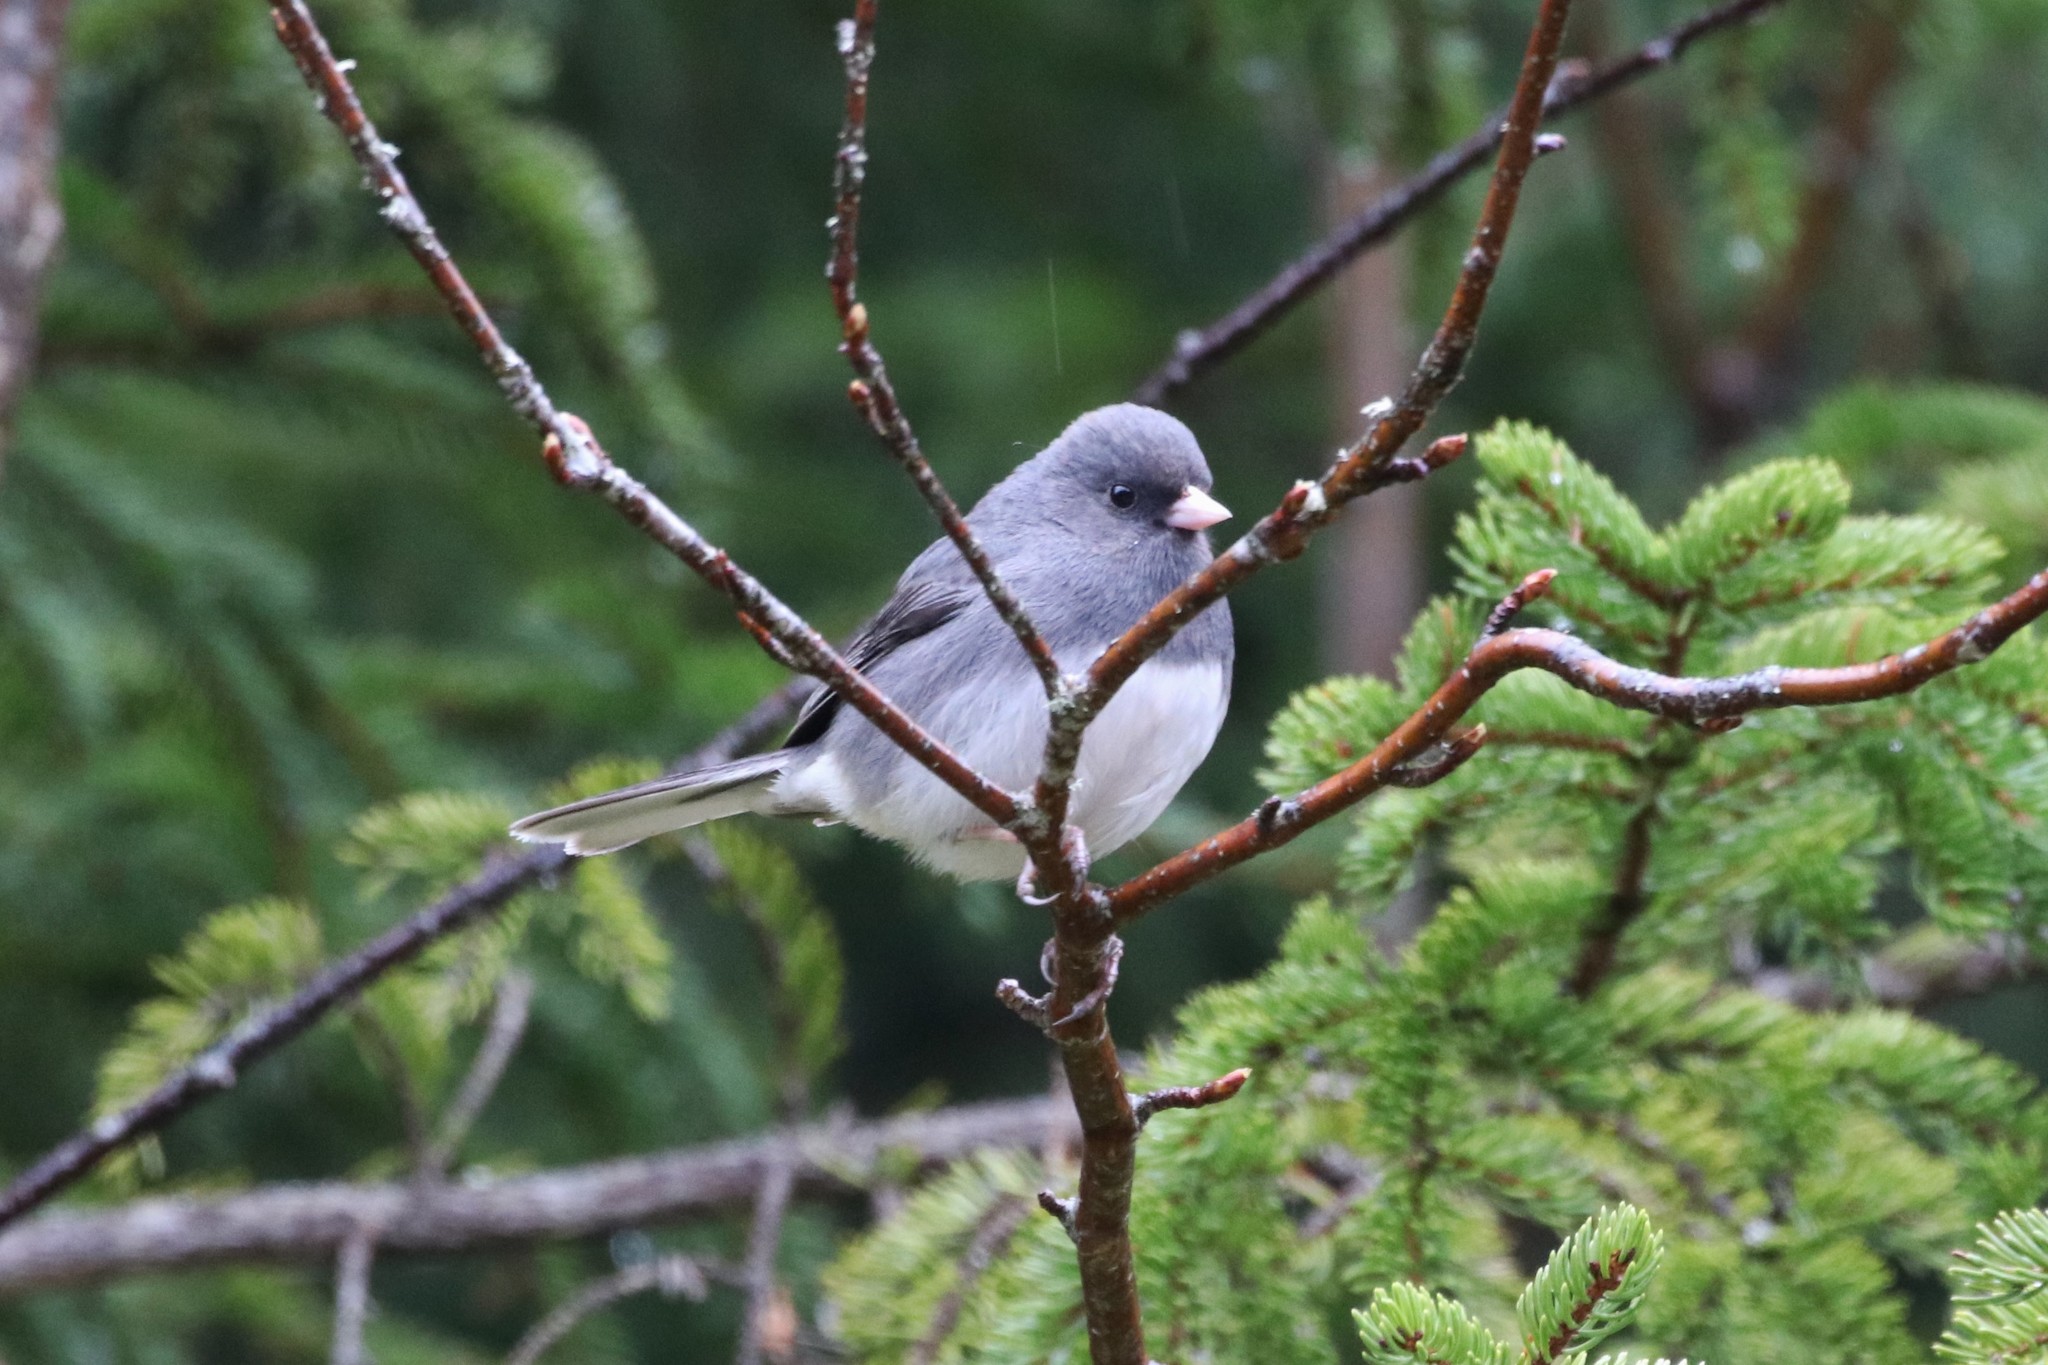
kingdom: Animalia
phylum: Chordata
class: Aves
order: Passeriformes
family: Passerellidae
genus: Junco
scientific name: Junco hyemalis
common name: Dark-eyed junco
